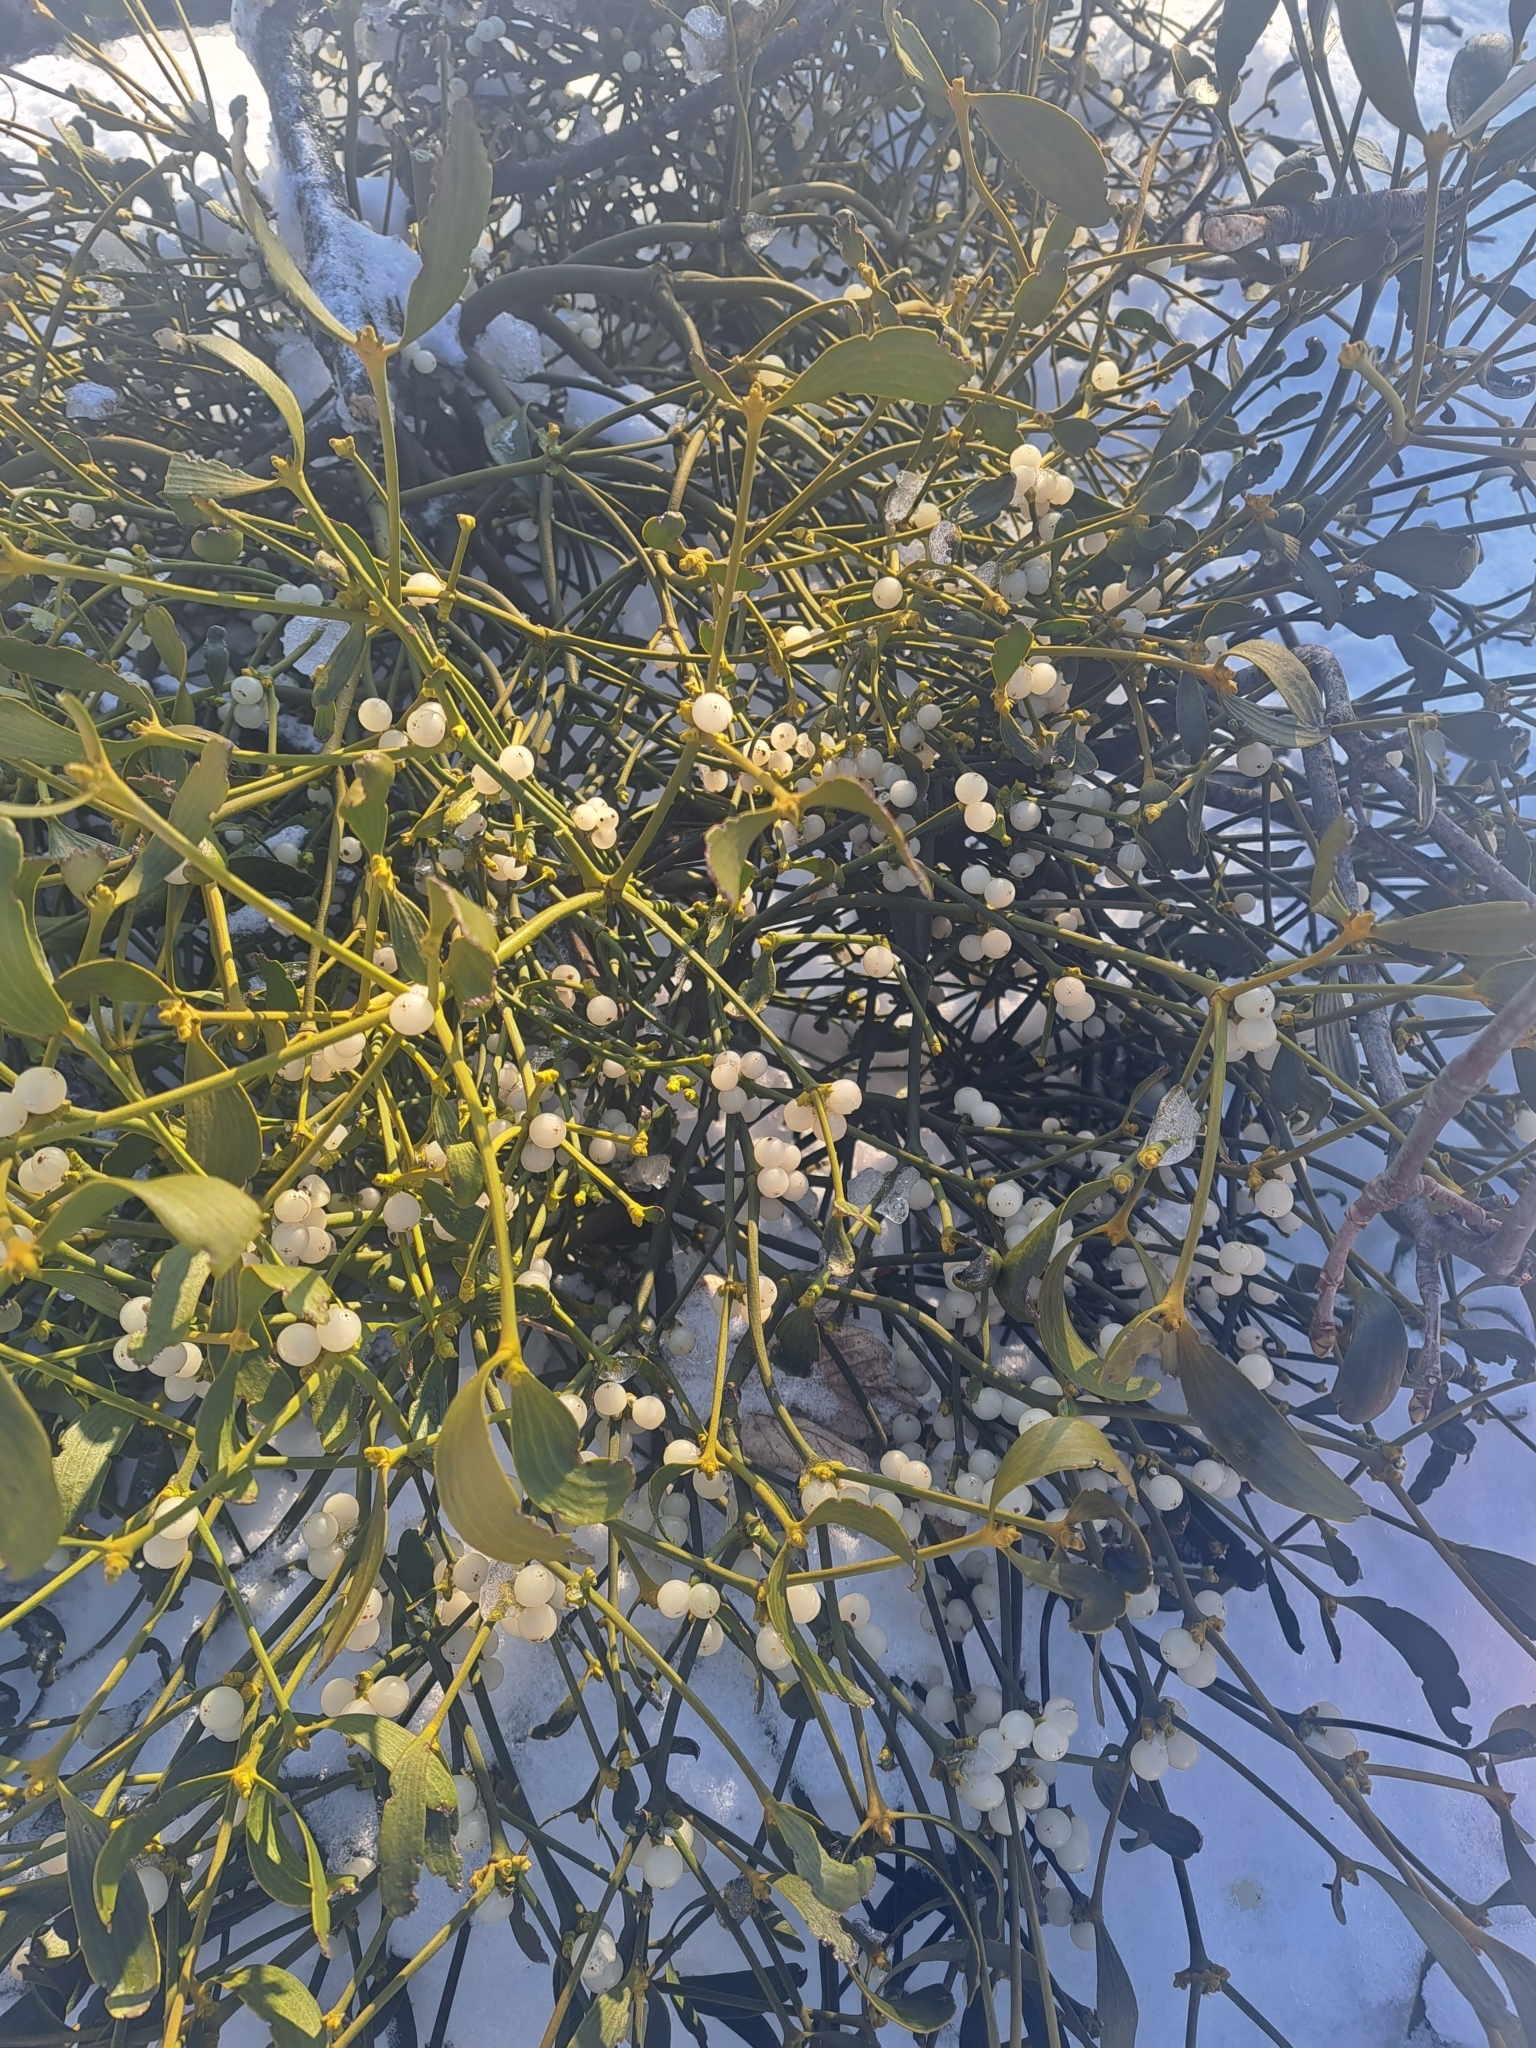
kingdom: Plantae
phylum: Tracheophyta
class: Magnoliopsida
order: Santalales
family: Viscaceae
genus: Viscum
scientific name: Viscum album
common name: Mistletoe
